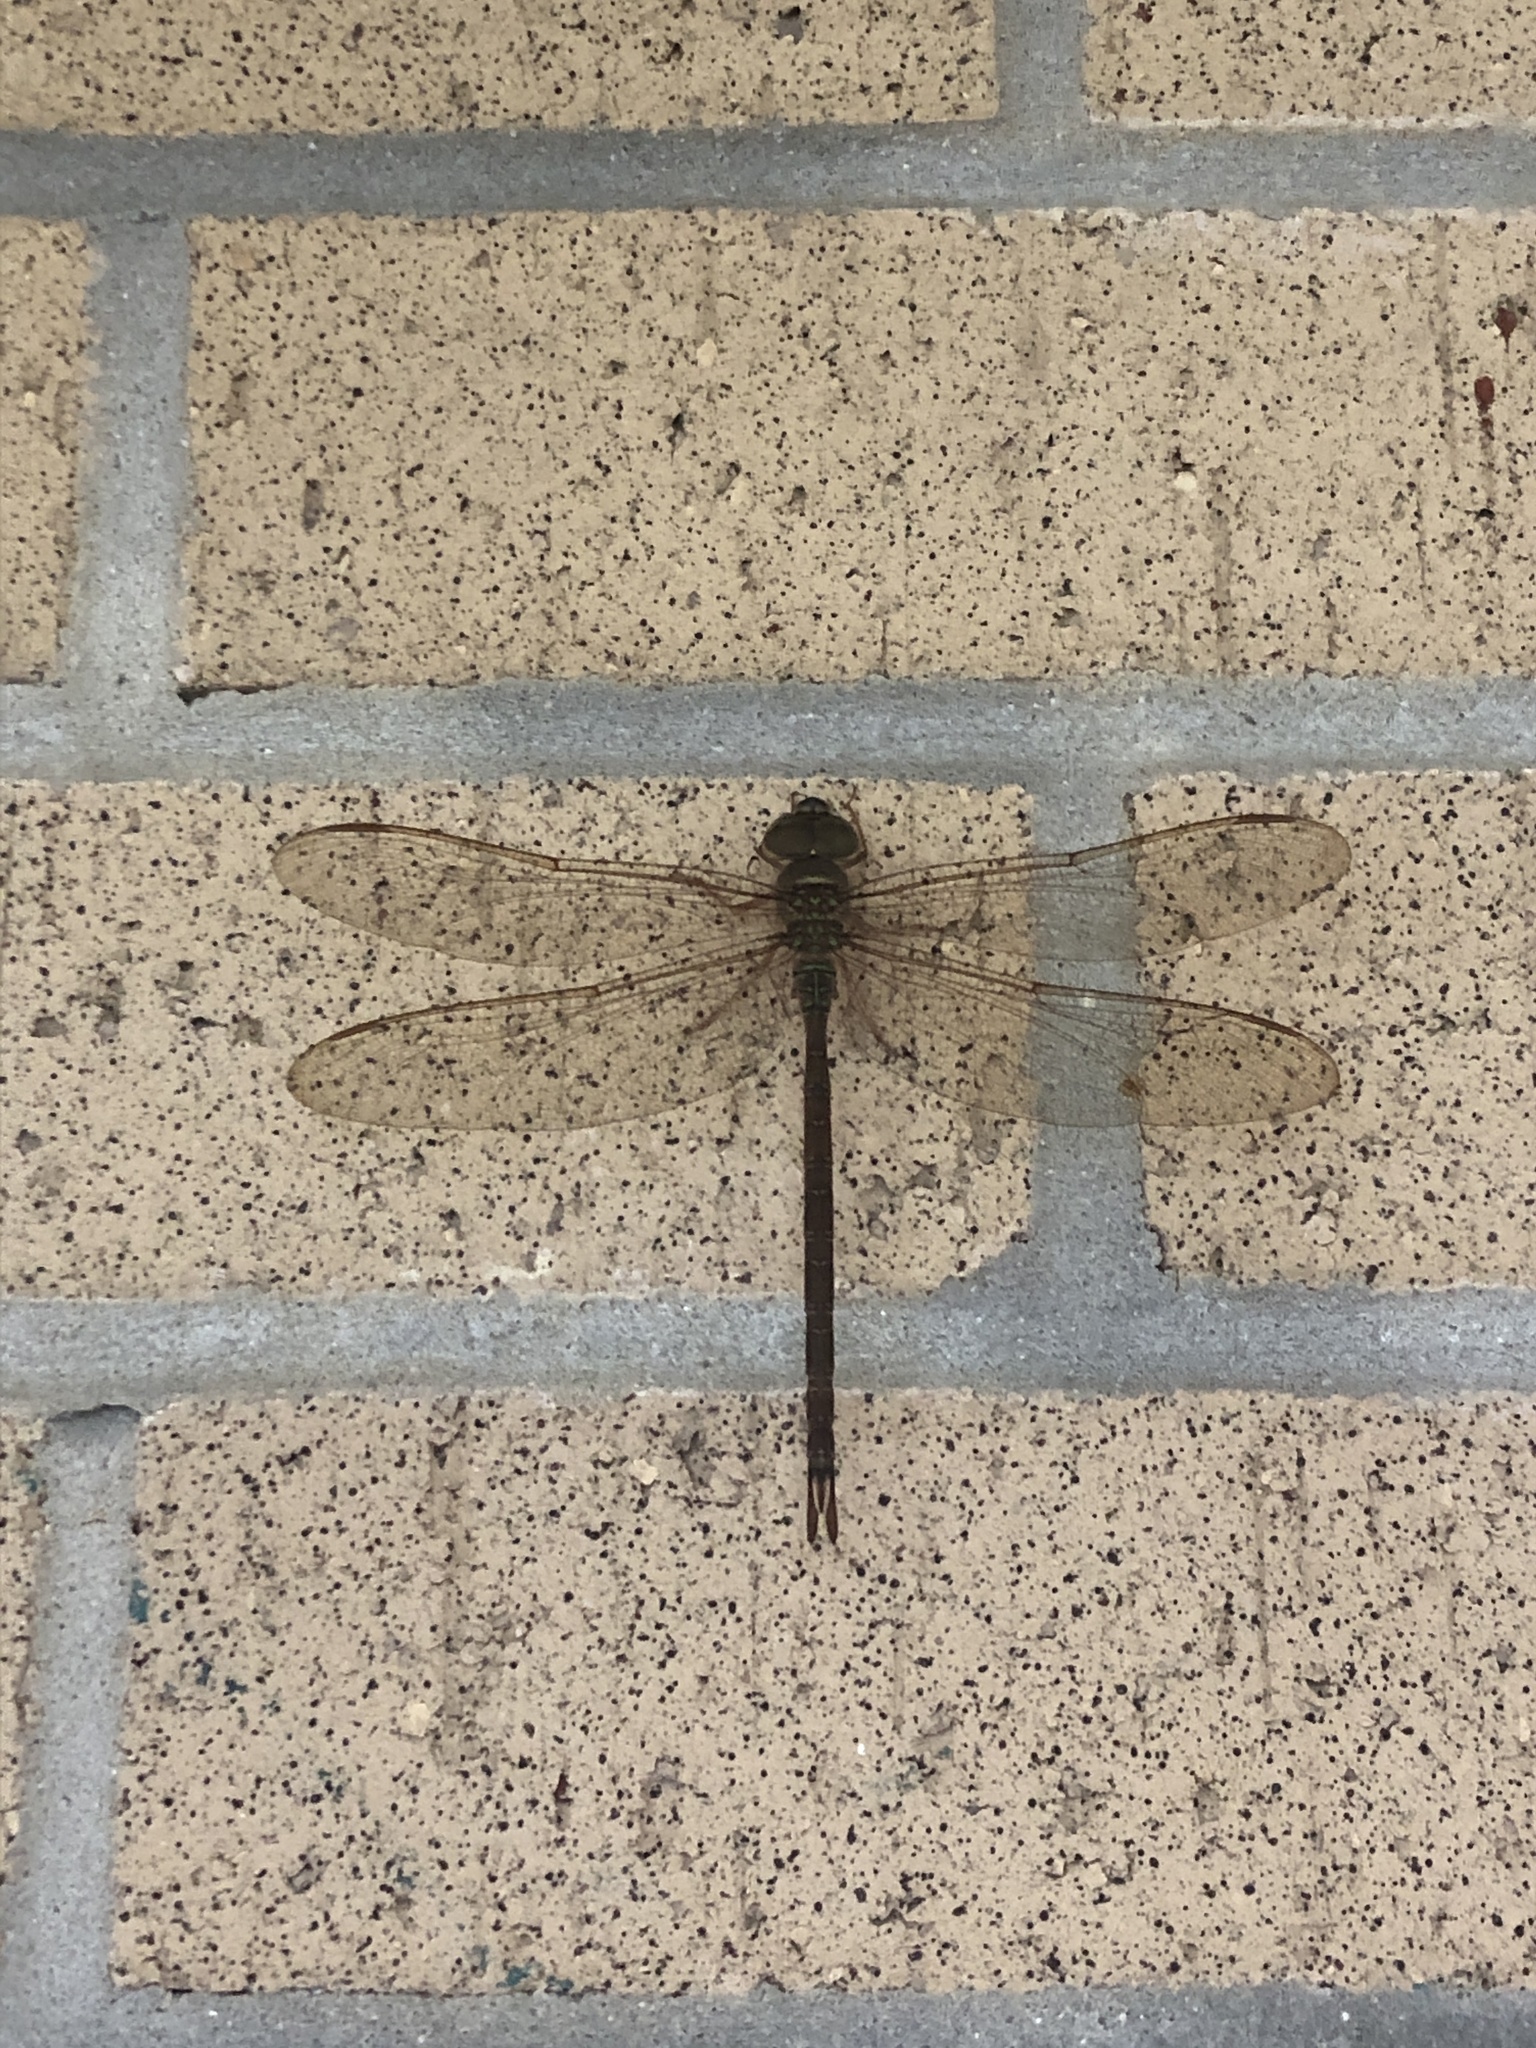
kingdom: Animalia
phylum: Arthropoda
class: Insecta
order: Odonata
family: Aeshnidae
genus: Gynacantha
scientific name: Gynacantha nervosa
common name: Twilight darner
